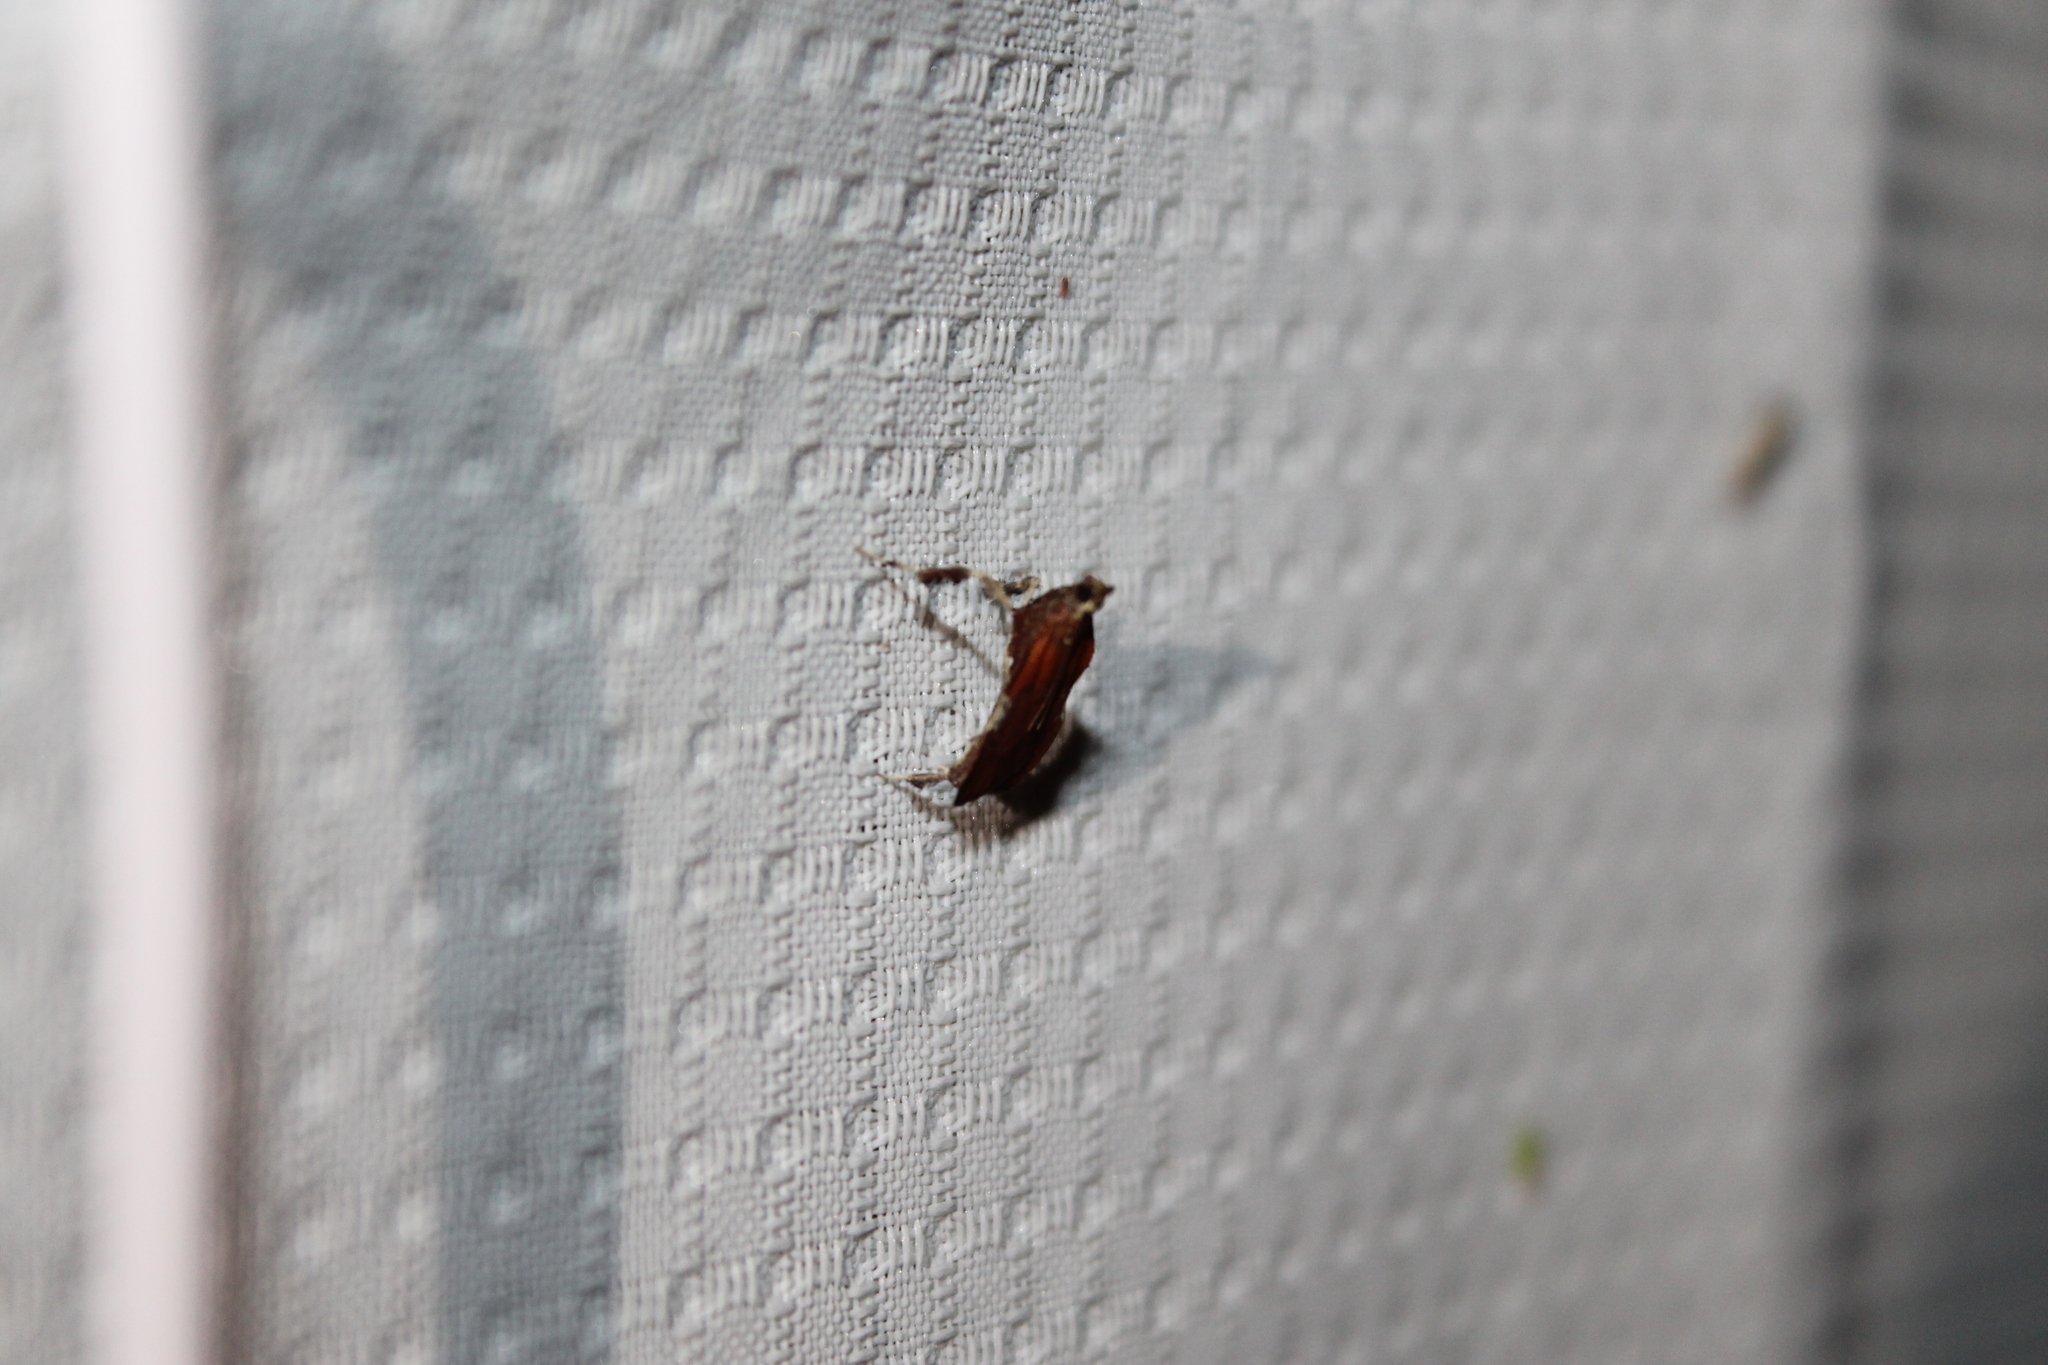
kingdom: Animalia
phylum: Arthropoda
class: Insecta
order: Lepidoptera
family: Pyralidae
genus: Galasa
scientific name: Galasa nigrinodis
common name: Boxwood leaftier moth
